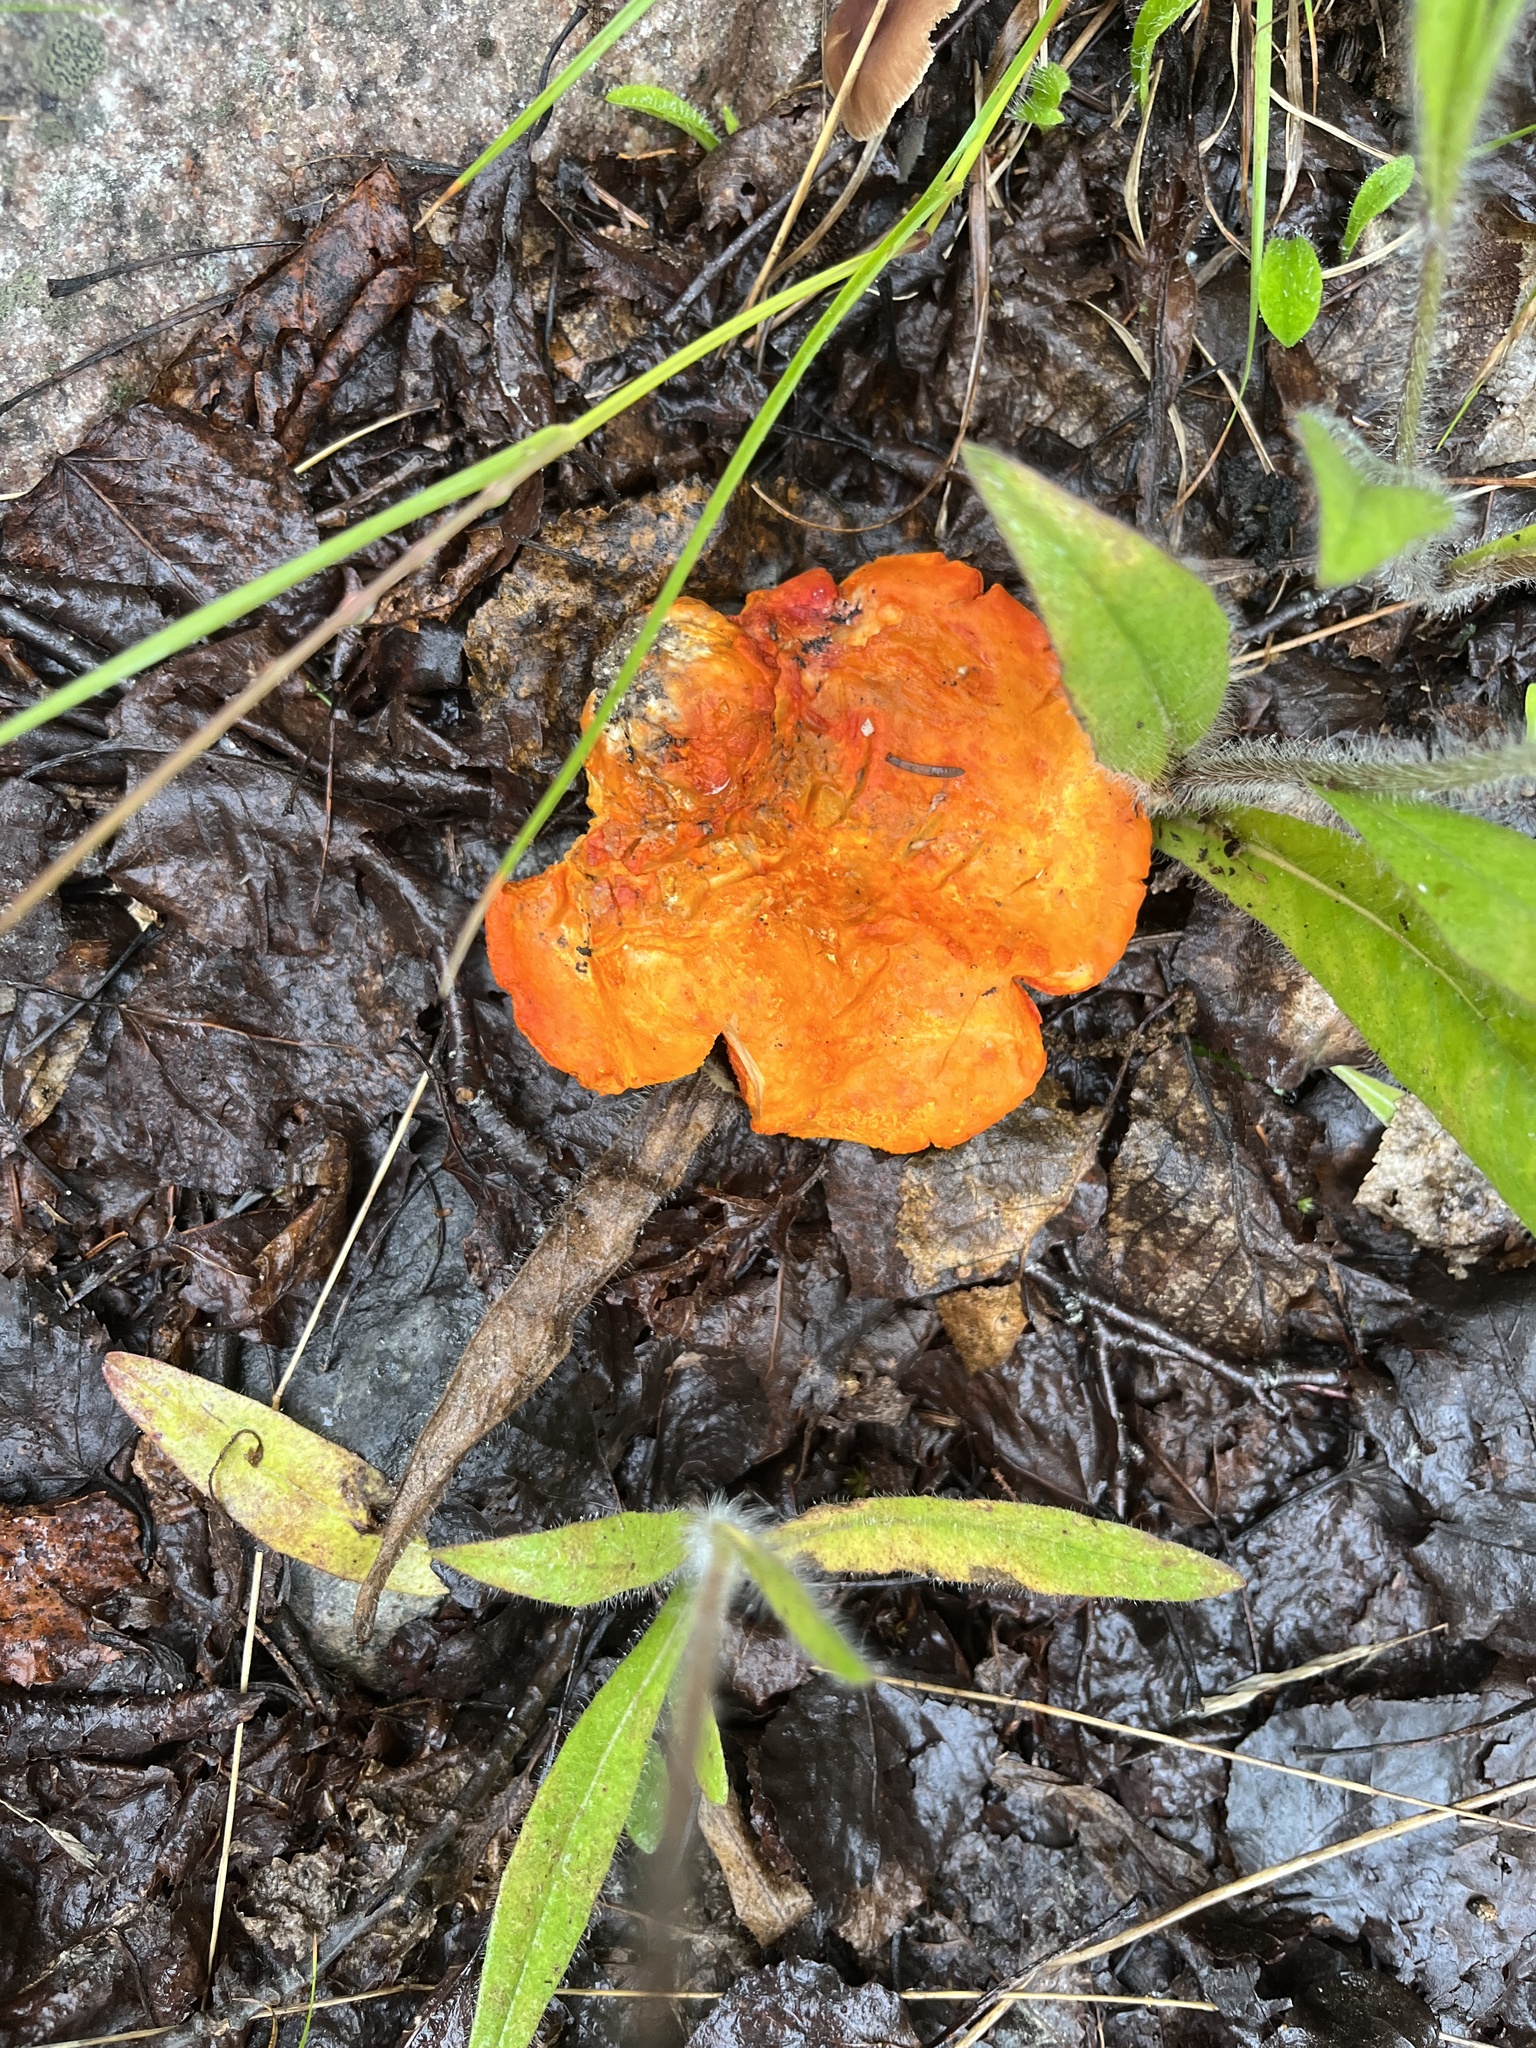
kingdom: Fungi
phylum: Ascomycota
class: Sordariomycetes
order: Hypocreales
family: Hypocreaceae
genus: Hypomyces
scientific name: Hypomyces lactifluorum
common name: Lobster mushroom
